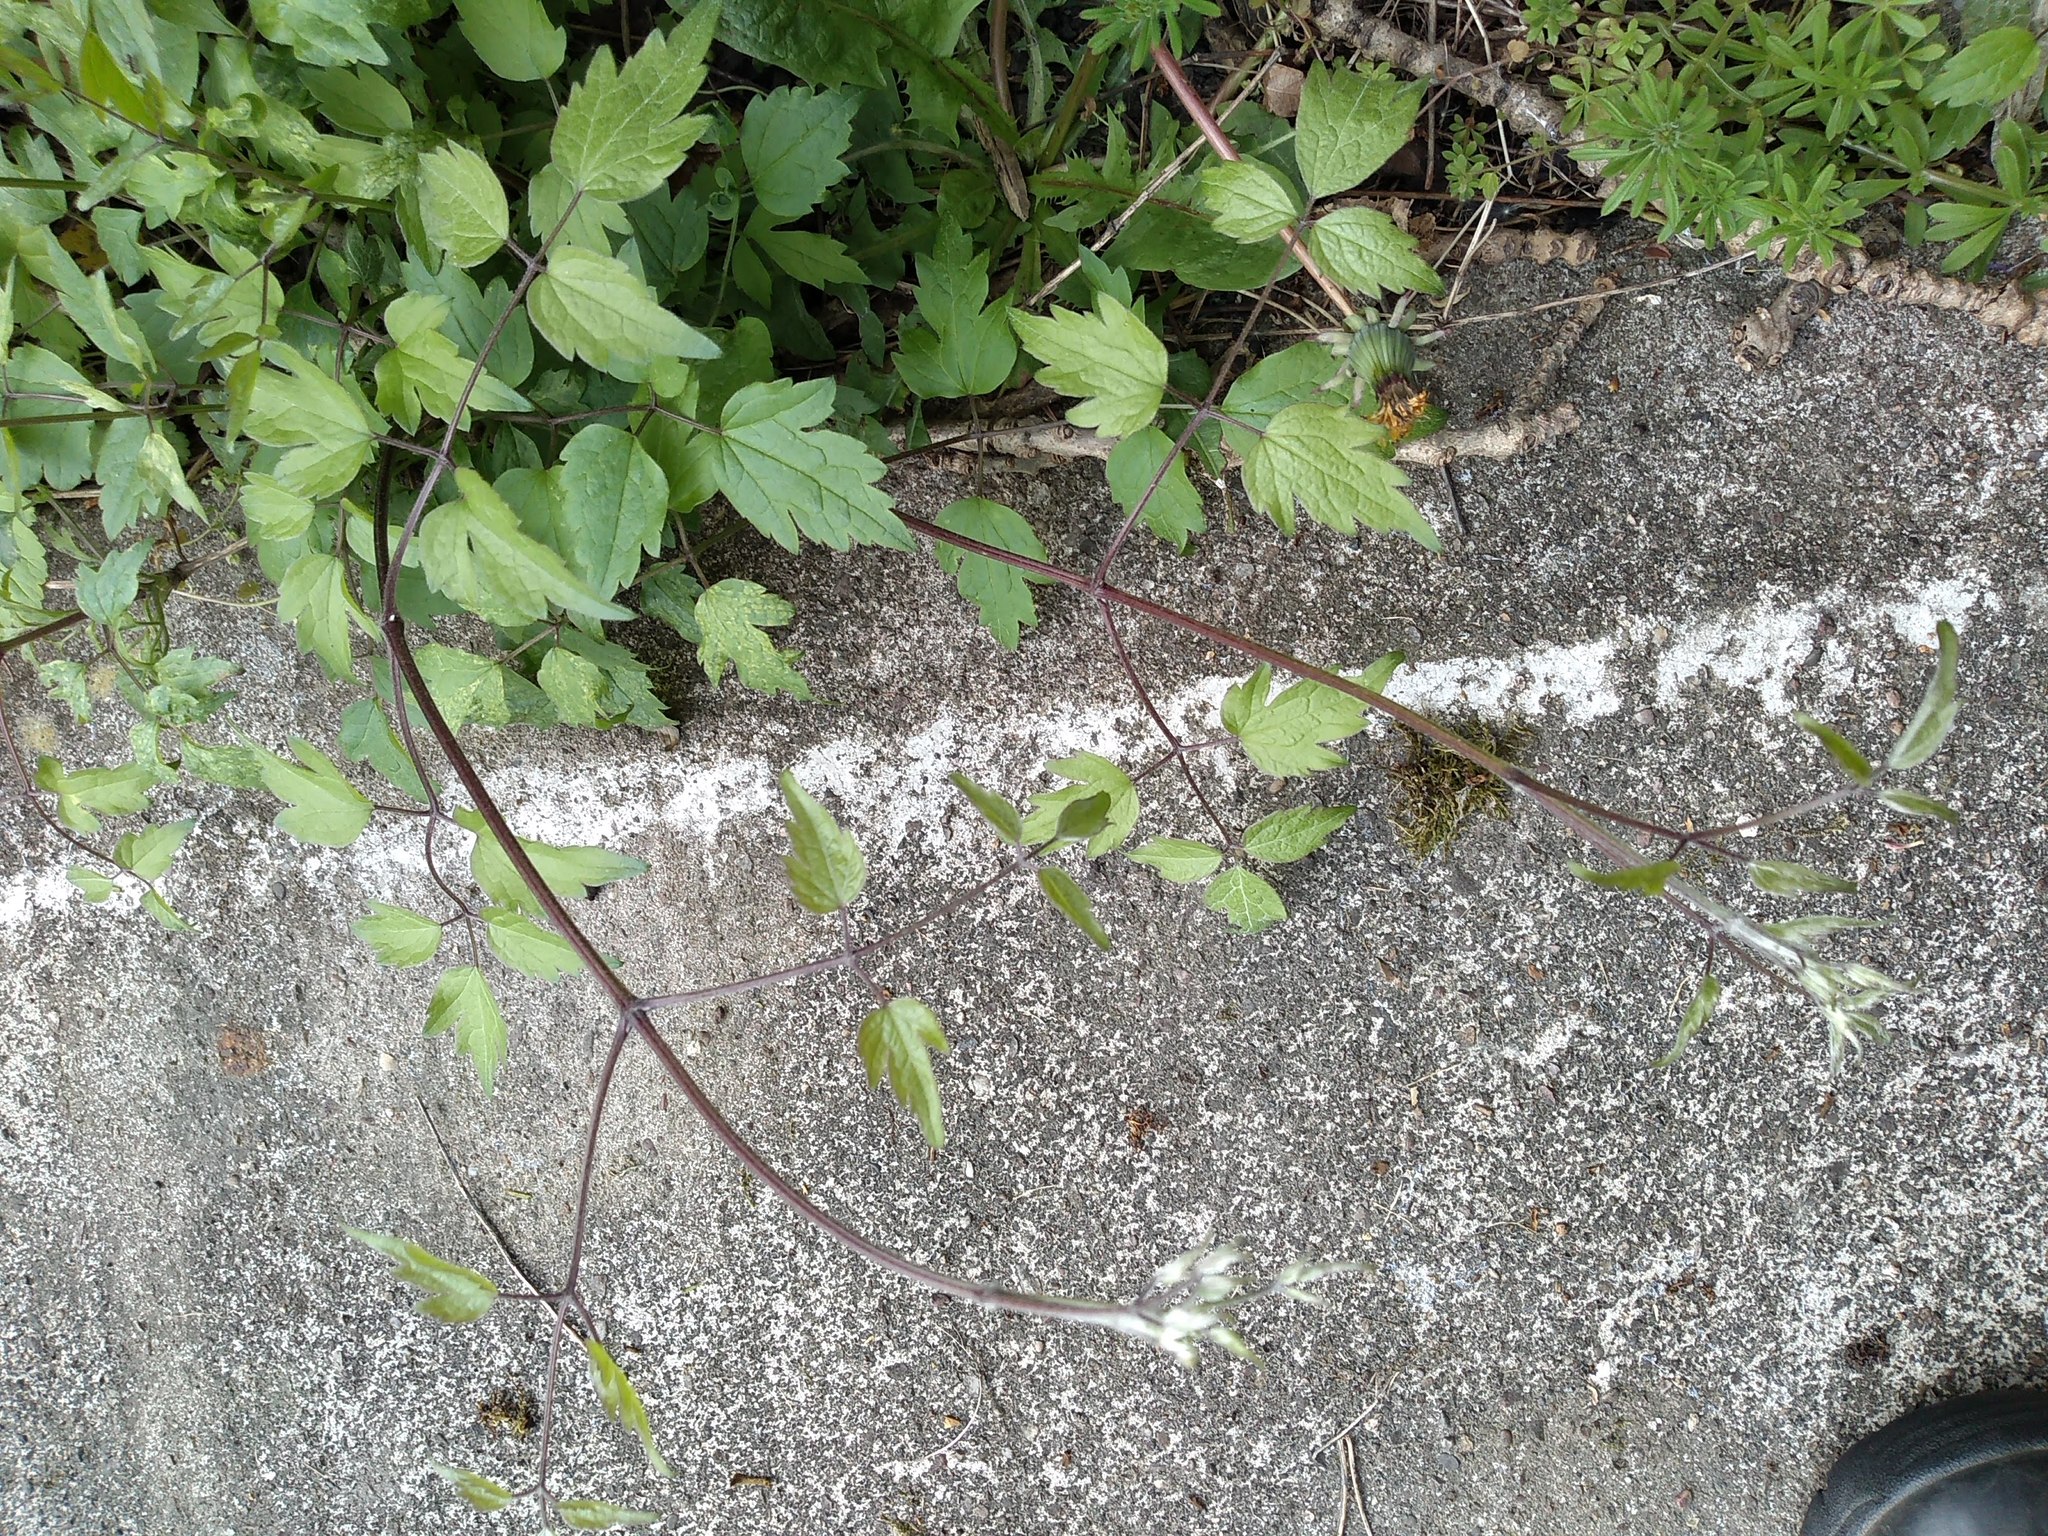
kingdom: Plantae
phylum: Tracheophyta
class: Magnoliopsida
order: Ranunculales
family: Ranunculaceae
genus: Clematis
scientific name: Clematis vitalba
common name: Evergreen clematis
